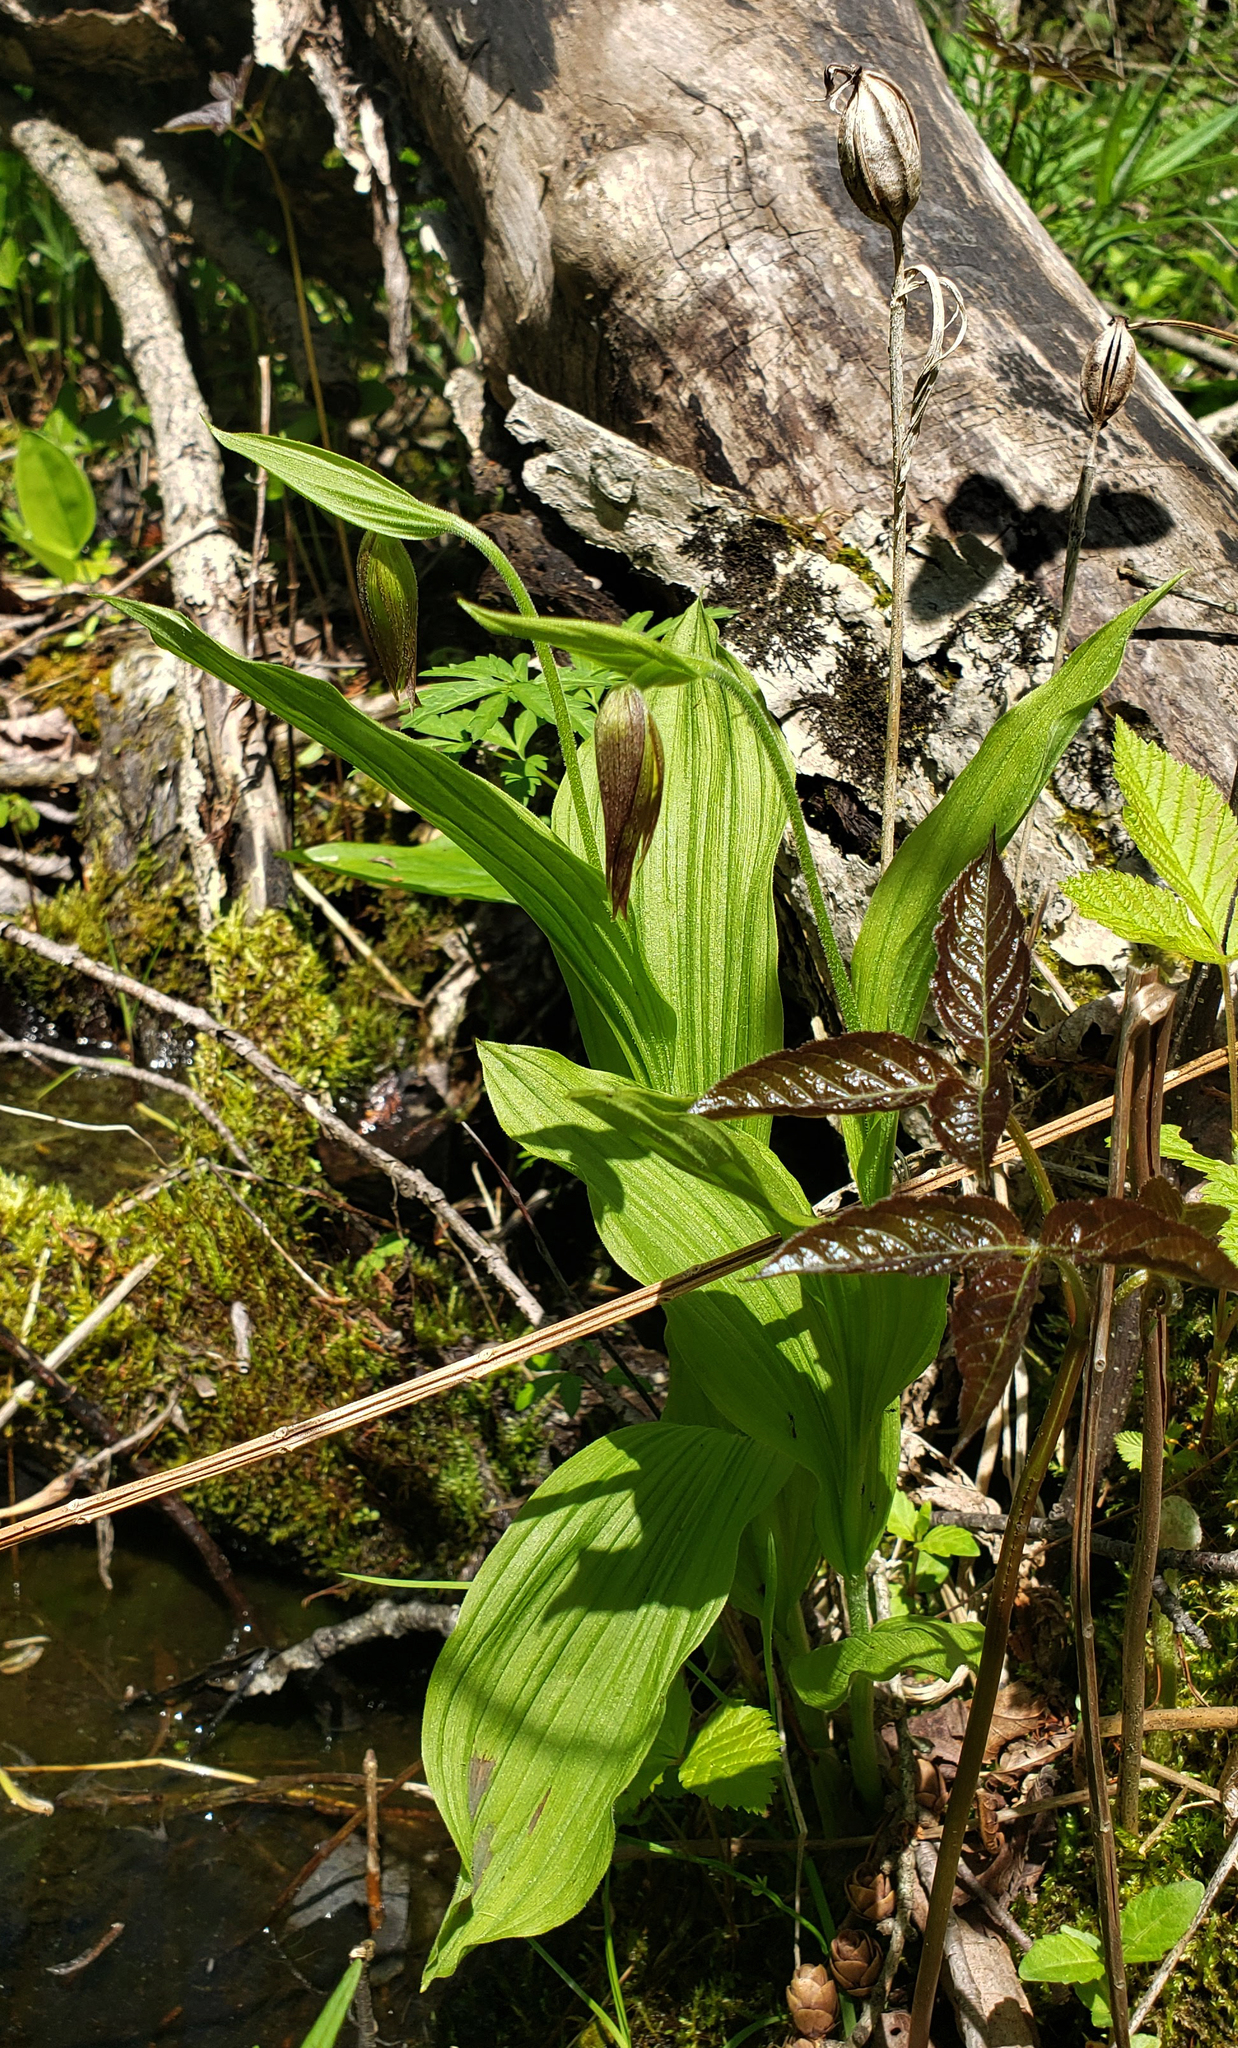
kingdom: Plantae
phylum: Tracheophyta
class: Liliopsida
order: Asparagales
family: Orchidaceae
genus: Cypripedium
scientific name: Cypripedium parviflorum
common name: American yellow lady's-slipper
